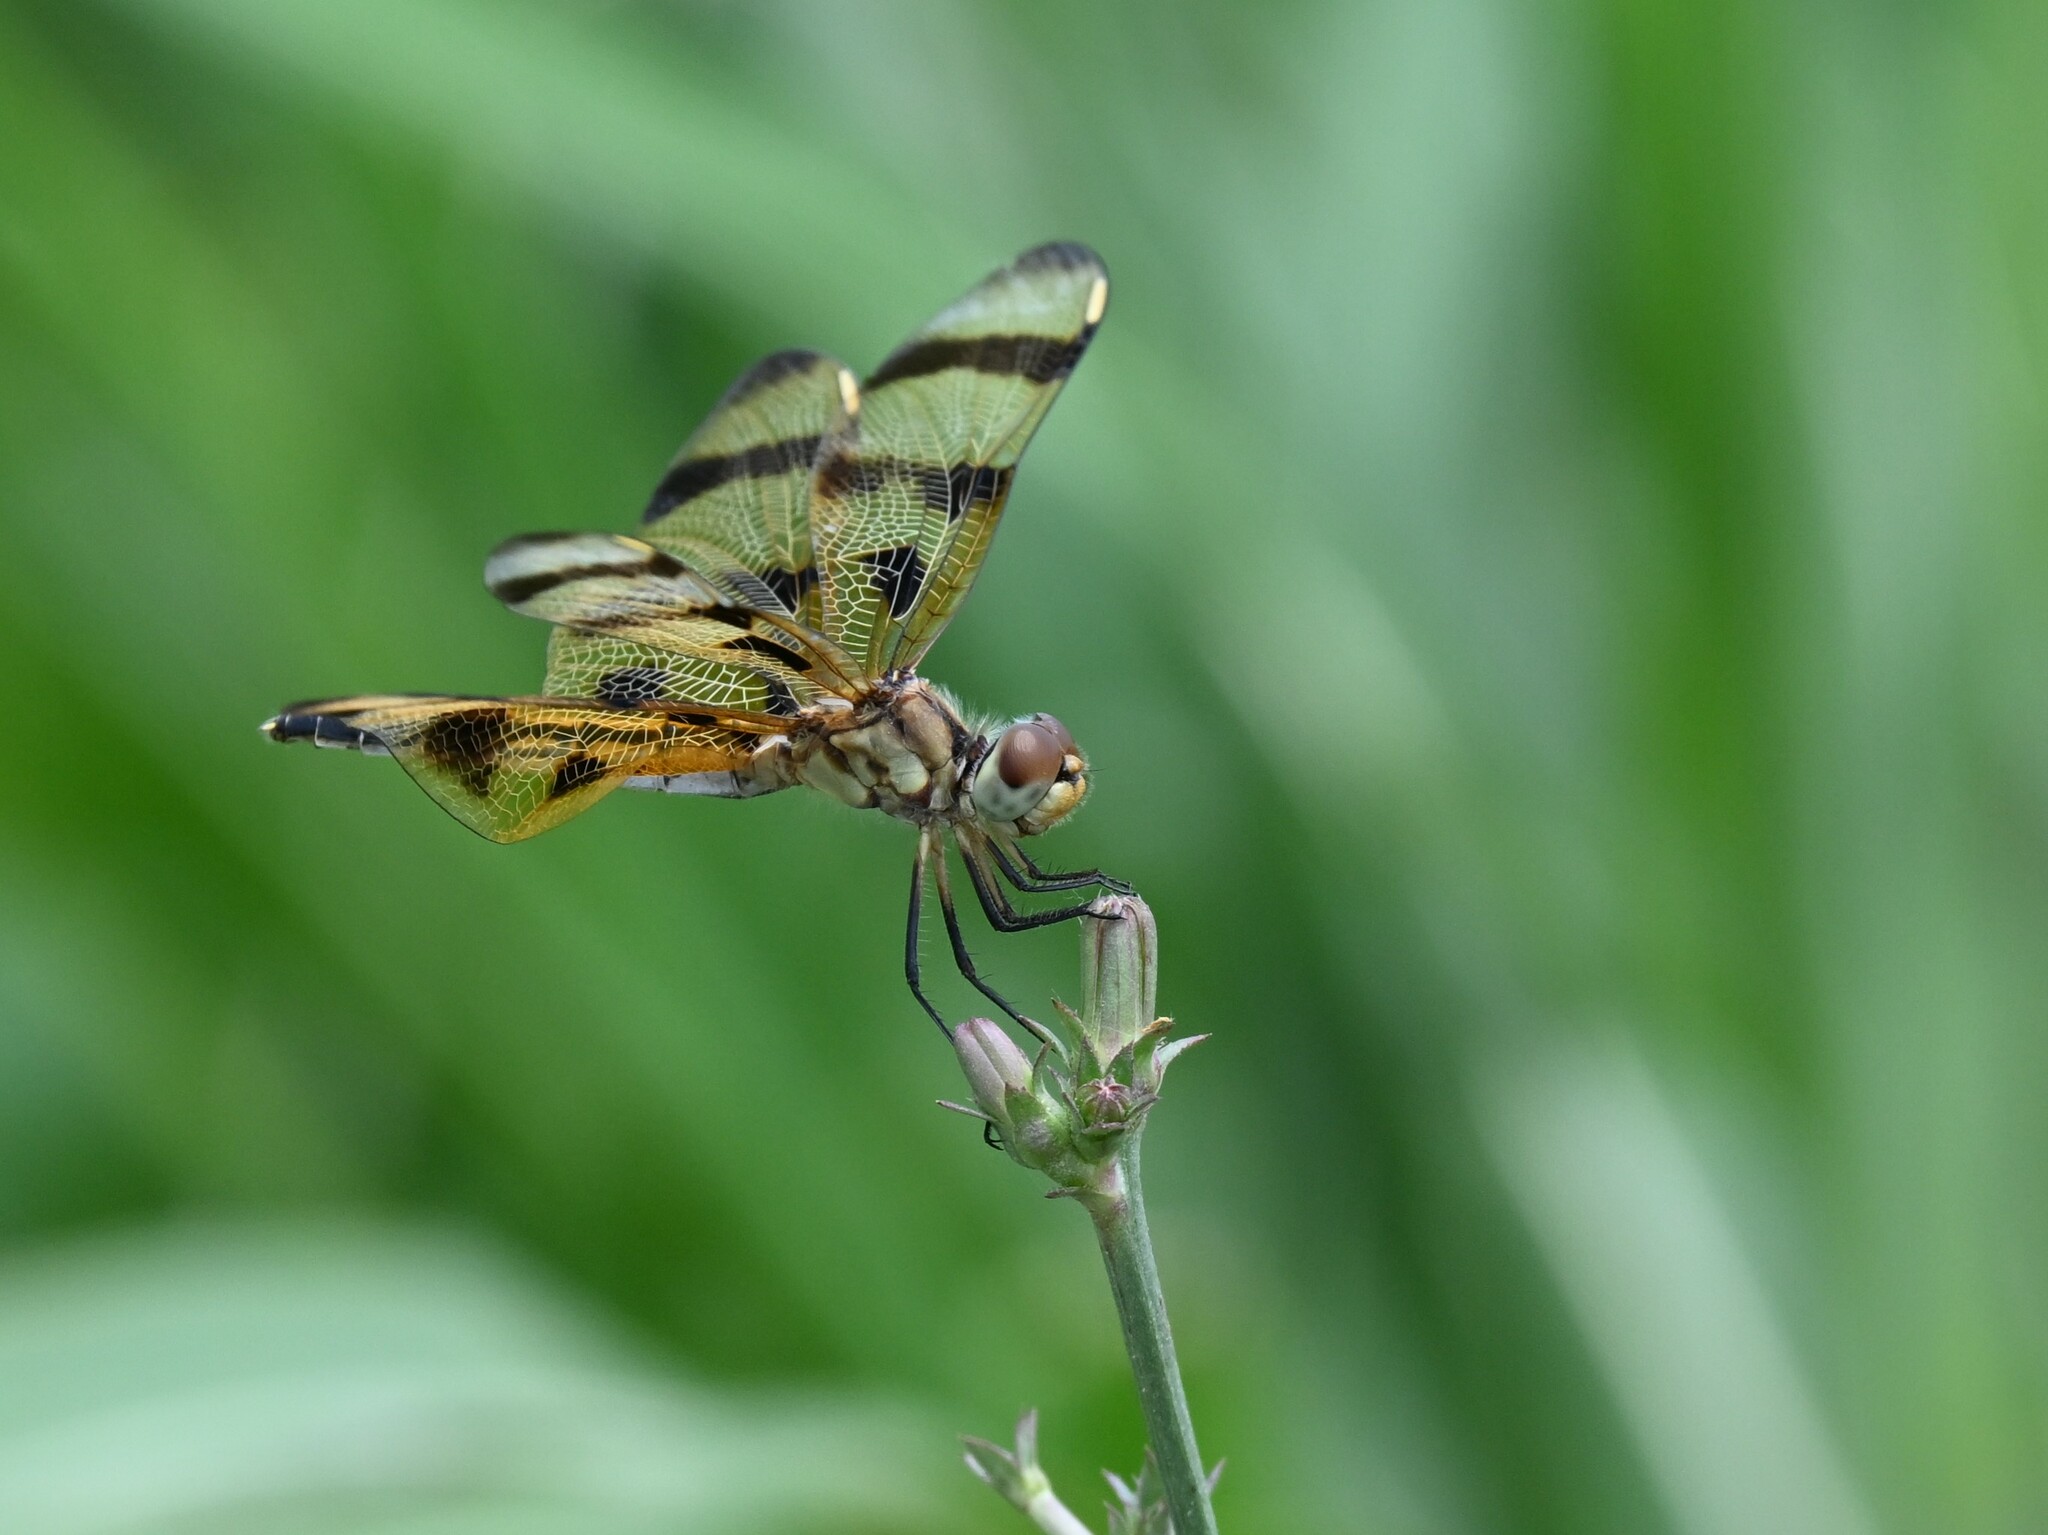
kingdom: Animalia
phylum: Arthropoda
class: Insecta
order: Odonata
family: Libellulidae
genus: Celithemis
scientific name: Celithemis eponina
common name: Halloween pennant
